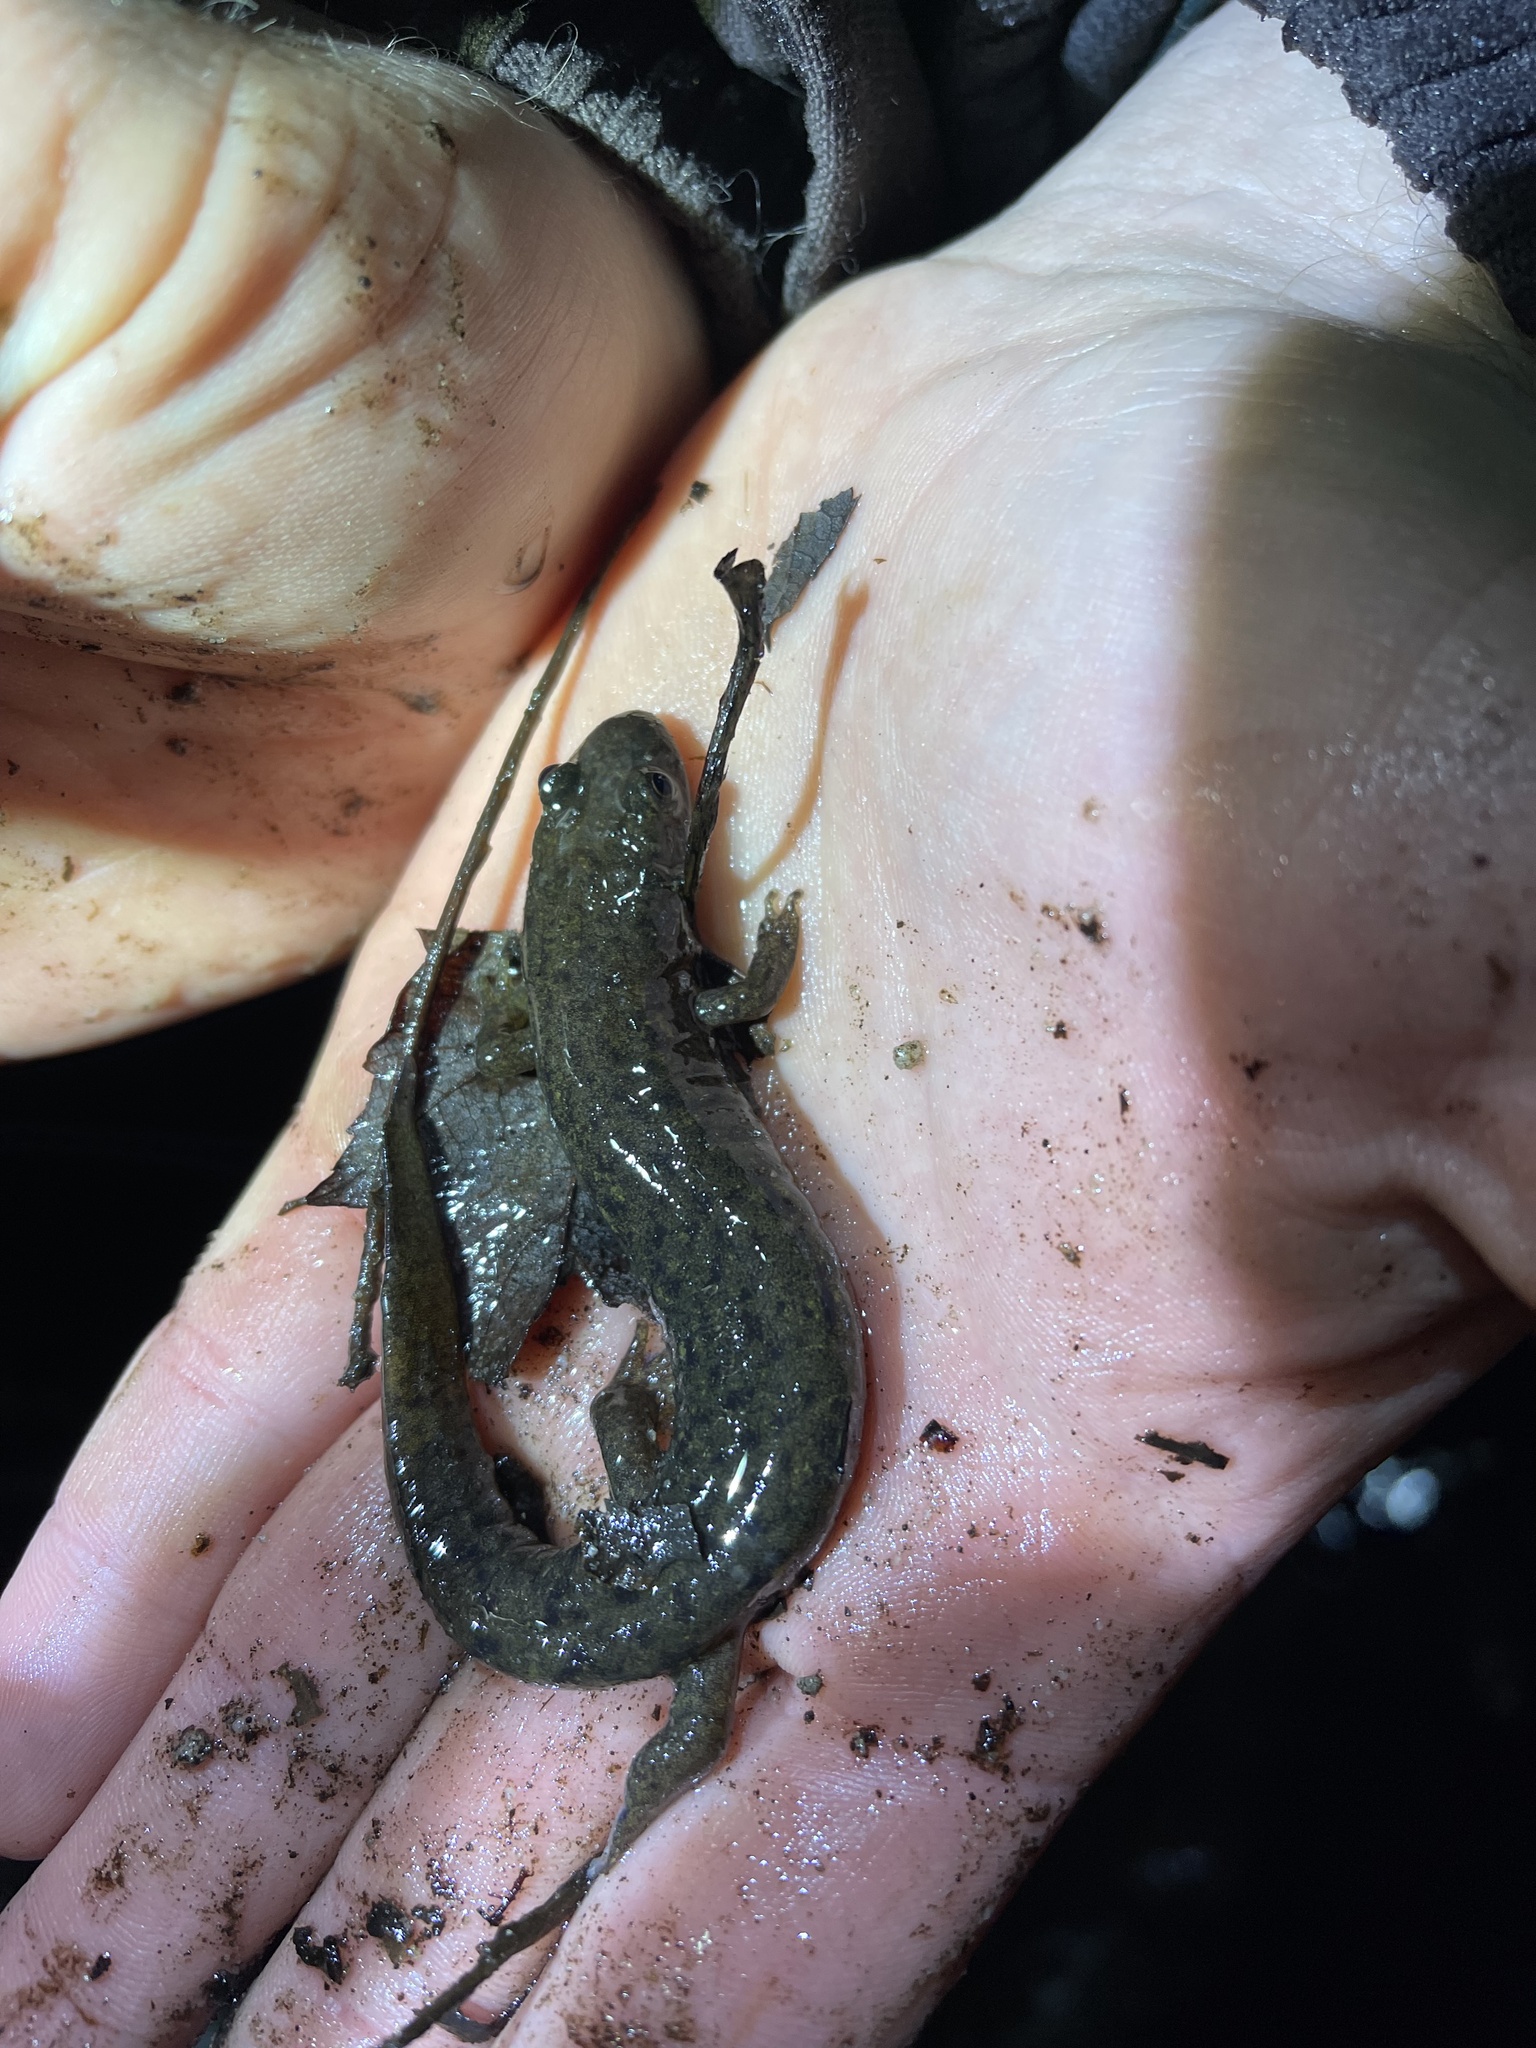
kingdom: Animalia
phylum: Chordata
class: Amphibia
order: Caudata
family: Plethodontidae
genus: Desmognathus
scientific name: Desmognathus monticola
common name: Seal salamander
